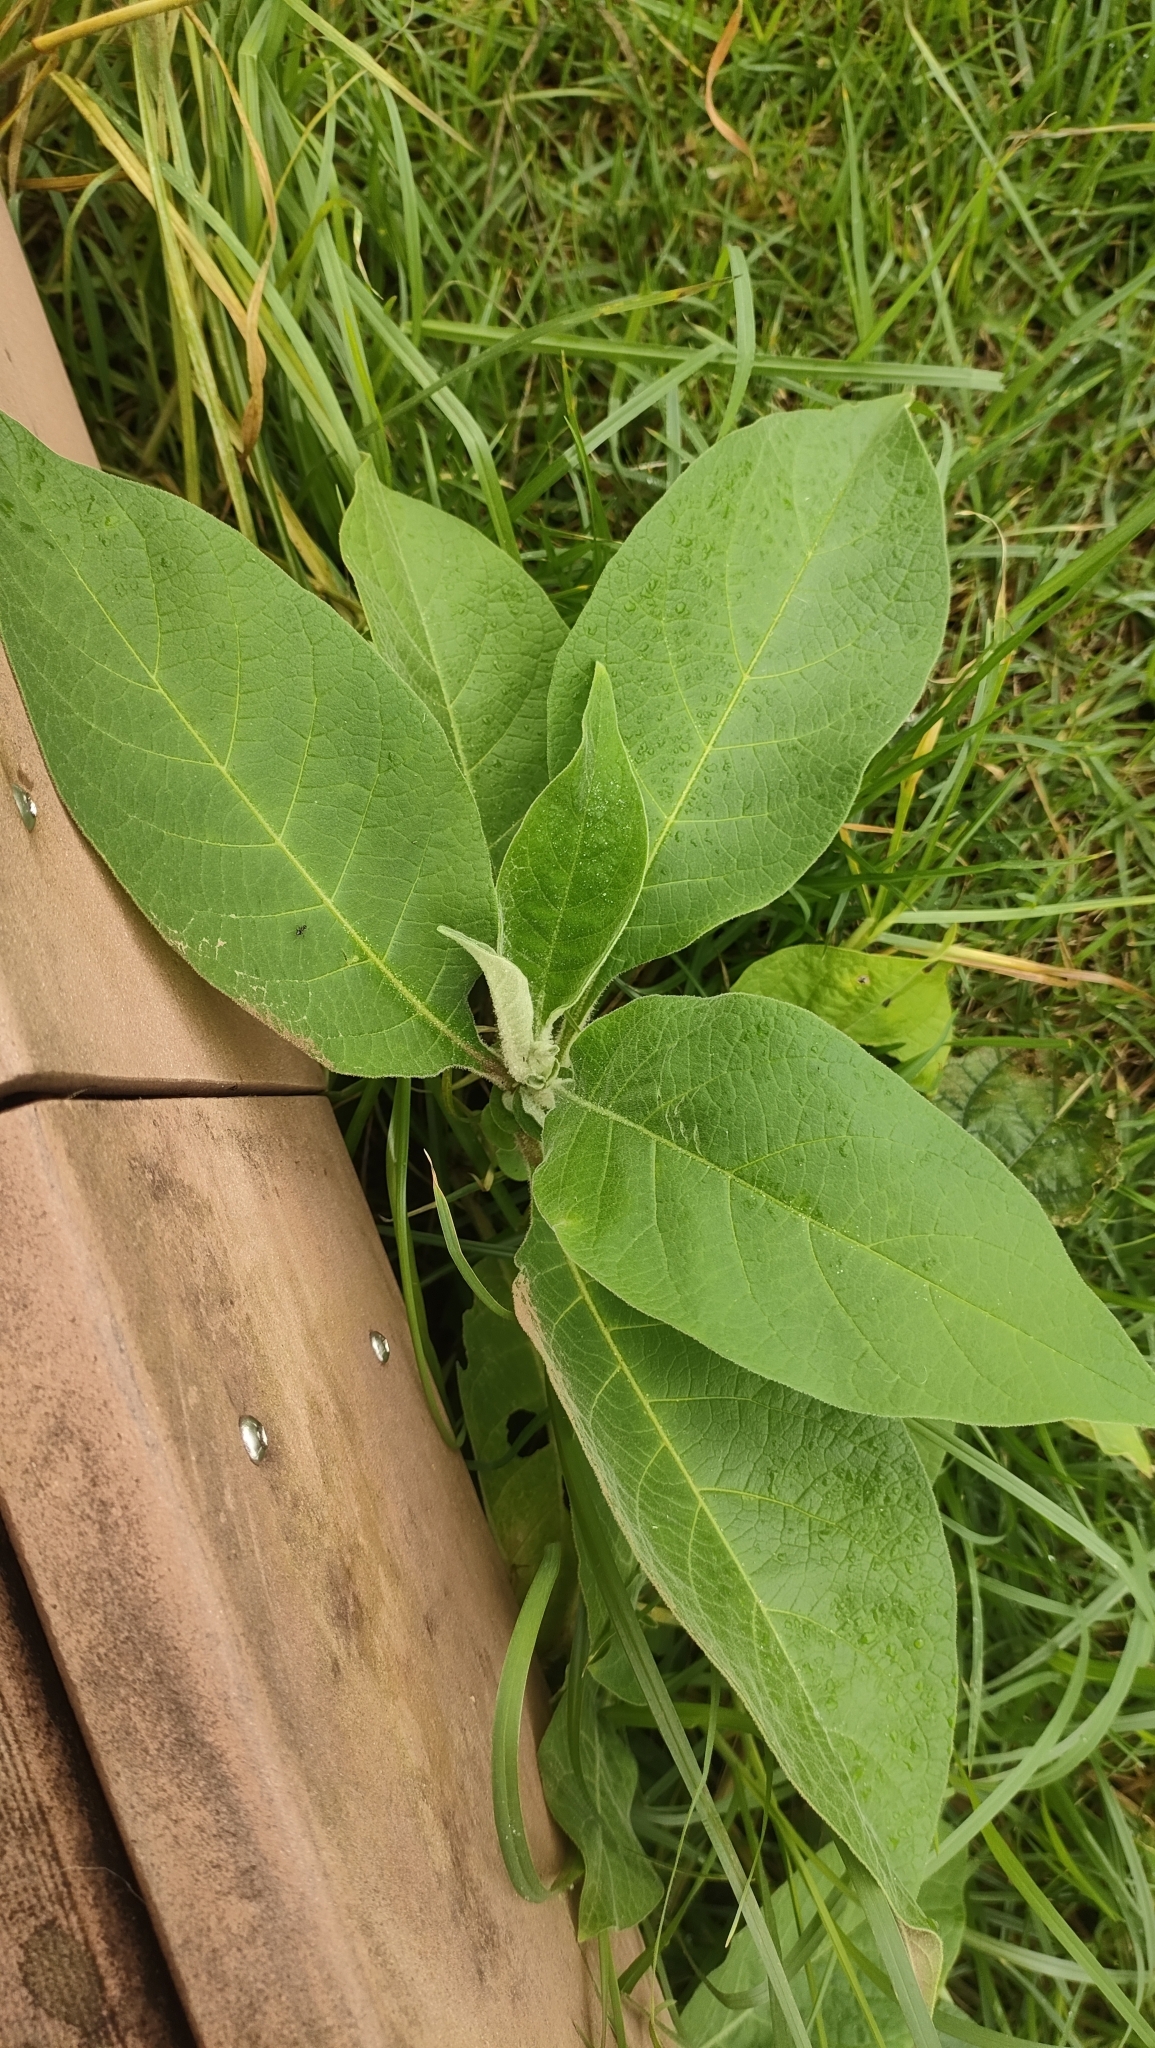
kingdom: Plantae
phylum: Tracheophyta
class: Magnoliopsida
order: Solanales
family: Solanaceae
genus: Solanum
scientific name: Solanum mauritianum
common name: Earleaf nightshade
